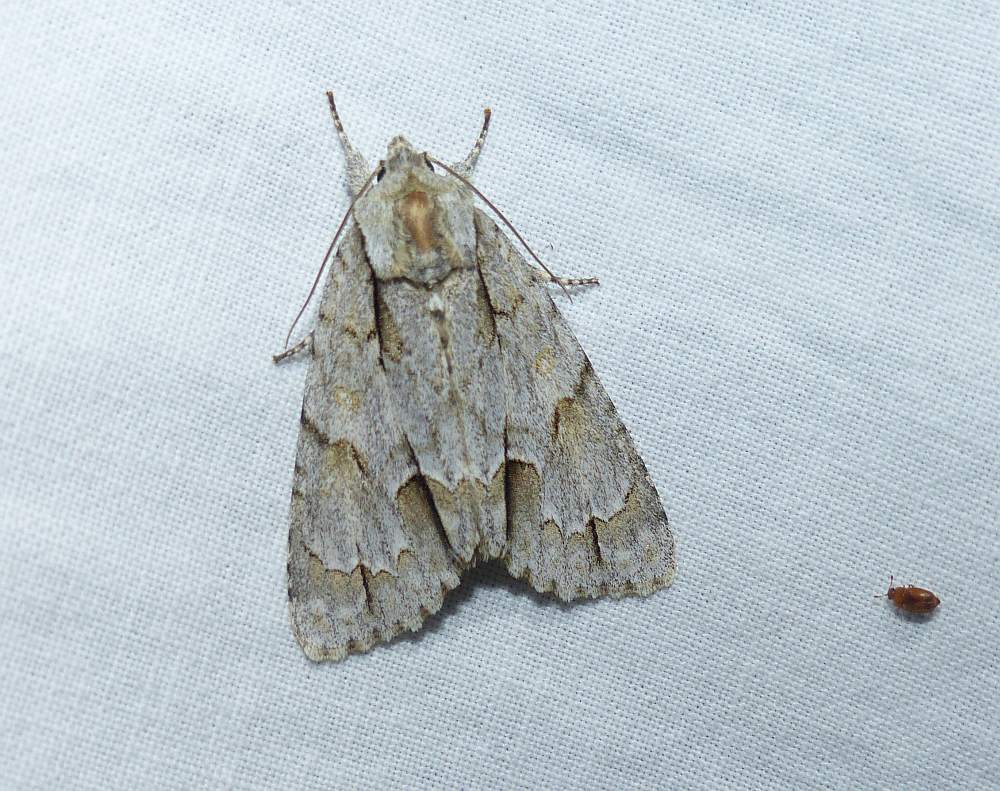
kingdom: Animalia
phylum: Arthropoda
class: Insecta
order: Lepidoptera
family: Noctuidae
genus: Acronicta
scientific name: Acronicta morula
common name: Ochre dagger
